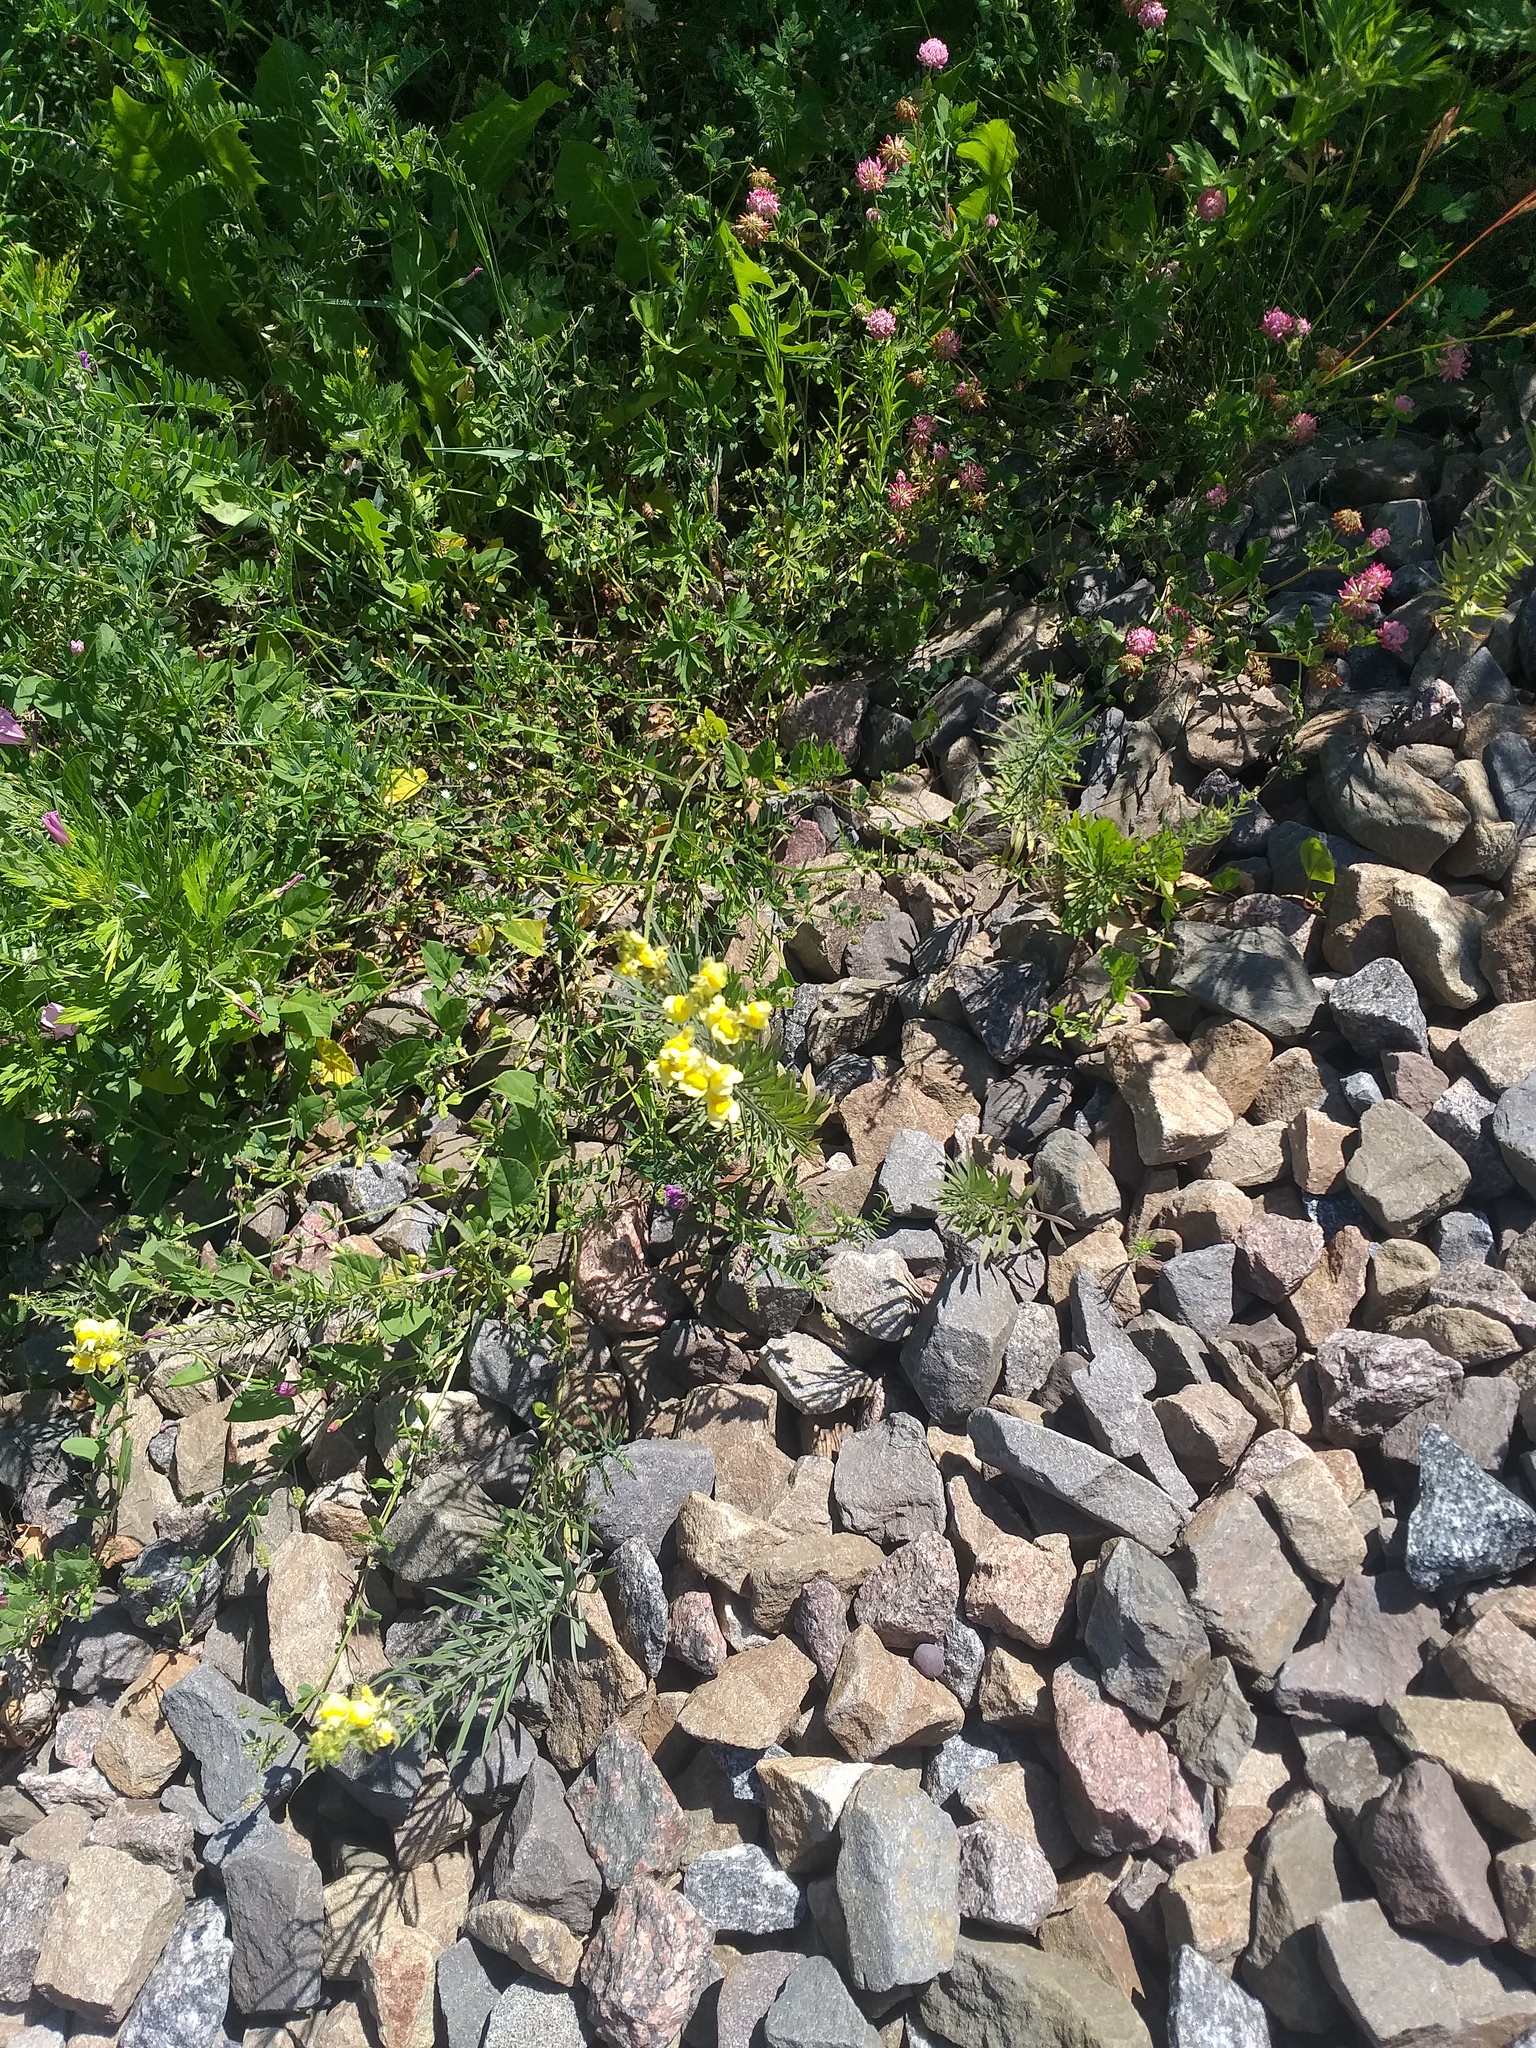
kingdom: Plantae
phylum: Tracheophyta
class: Magnoliopsida
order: Lamiales
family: Plantaginaceae
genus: Linaria
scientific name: Linaria vulgaris
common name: Butter and eggs
